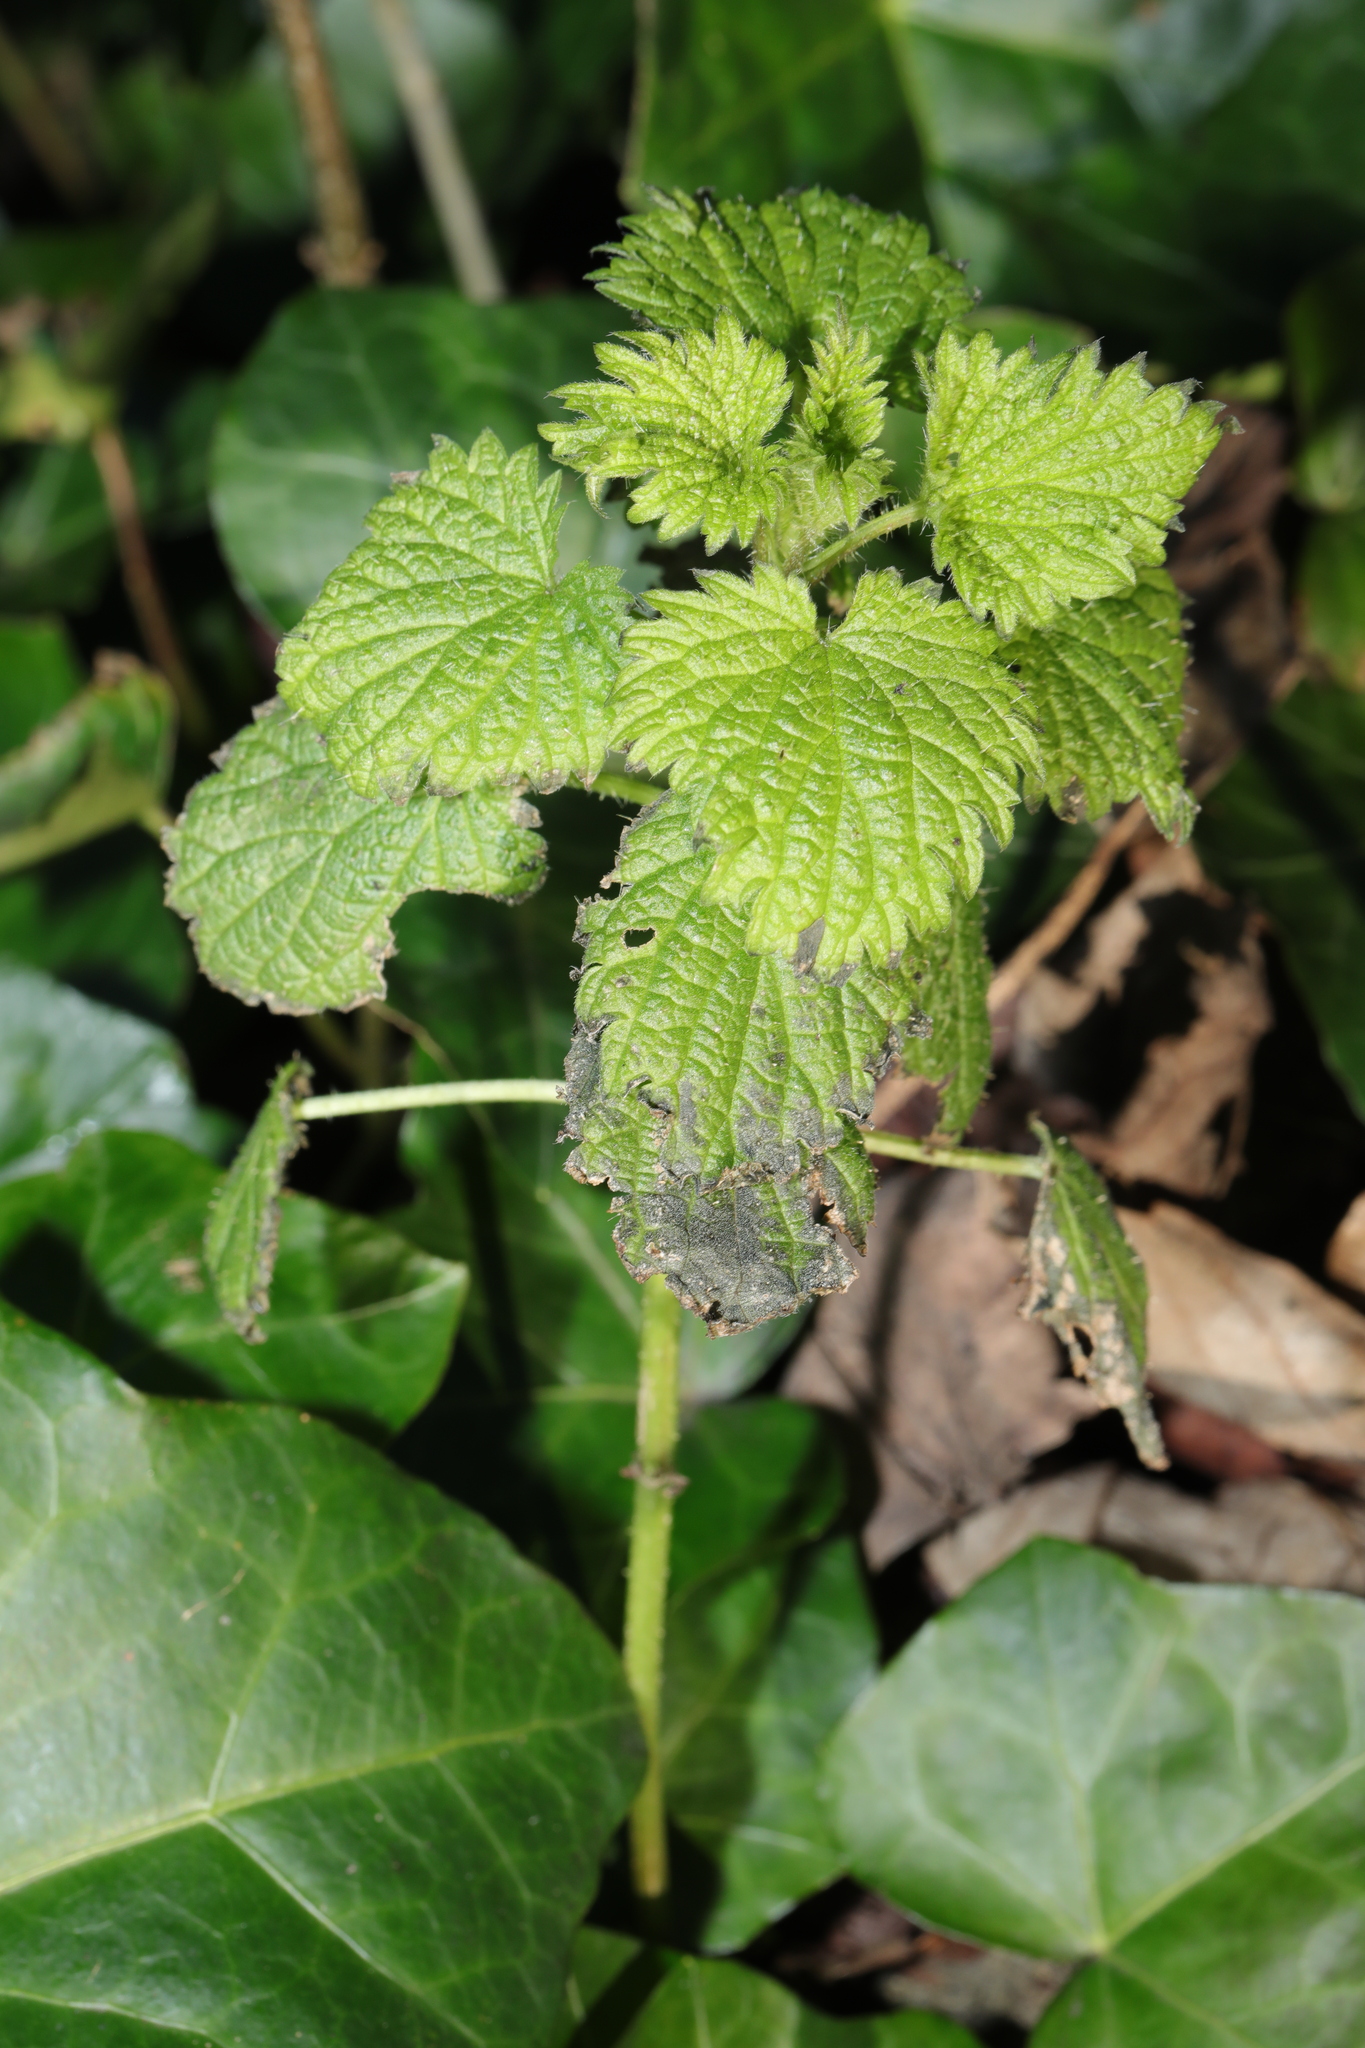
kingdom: Plantae
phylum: Tracheophyta
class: Magnoliopsida
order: Rosales
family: Urticaceae
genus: Urtica
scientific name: Urtica dioica
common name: Common nettle
